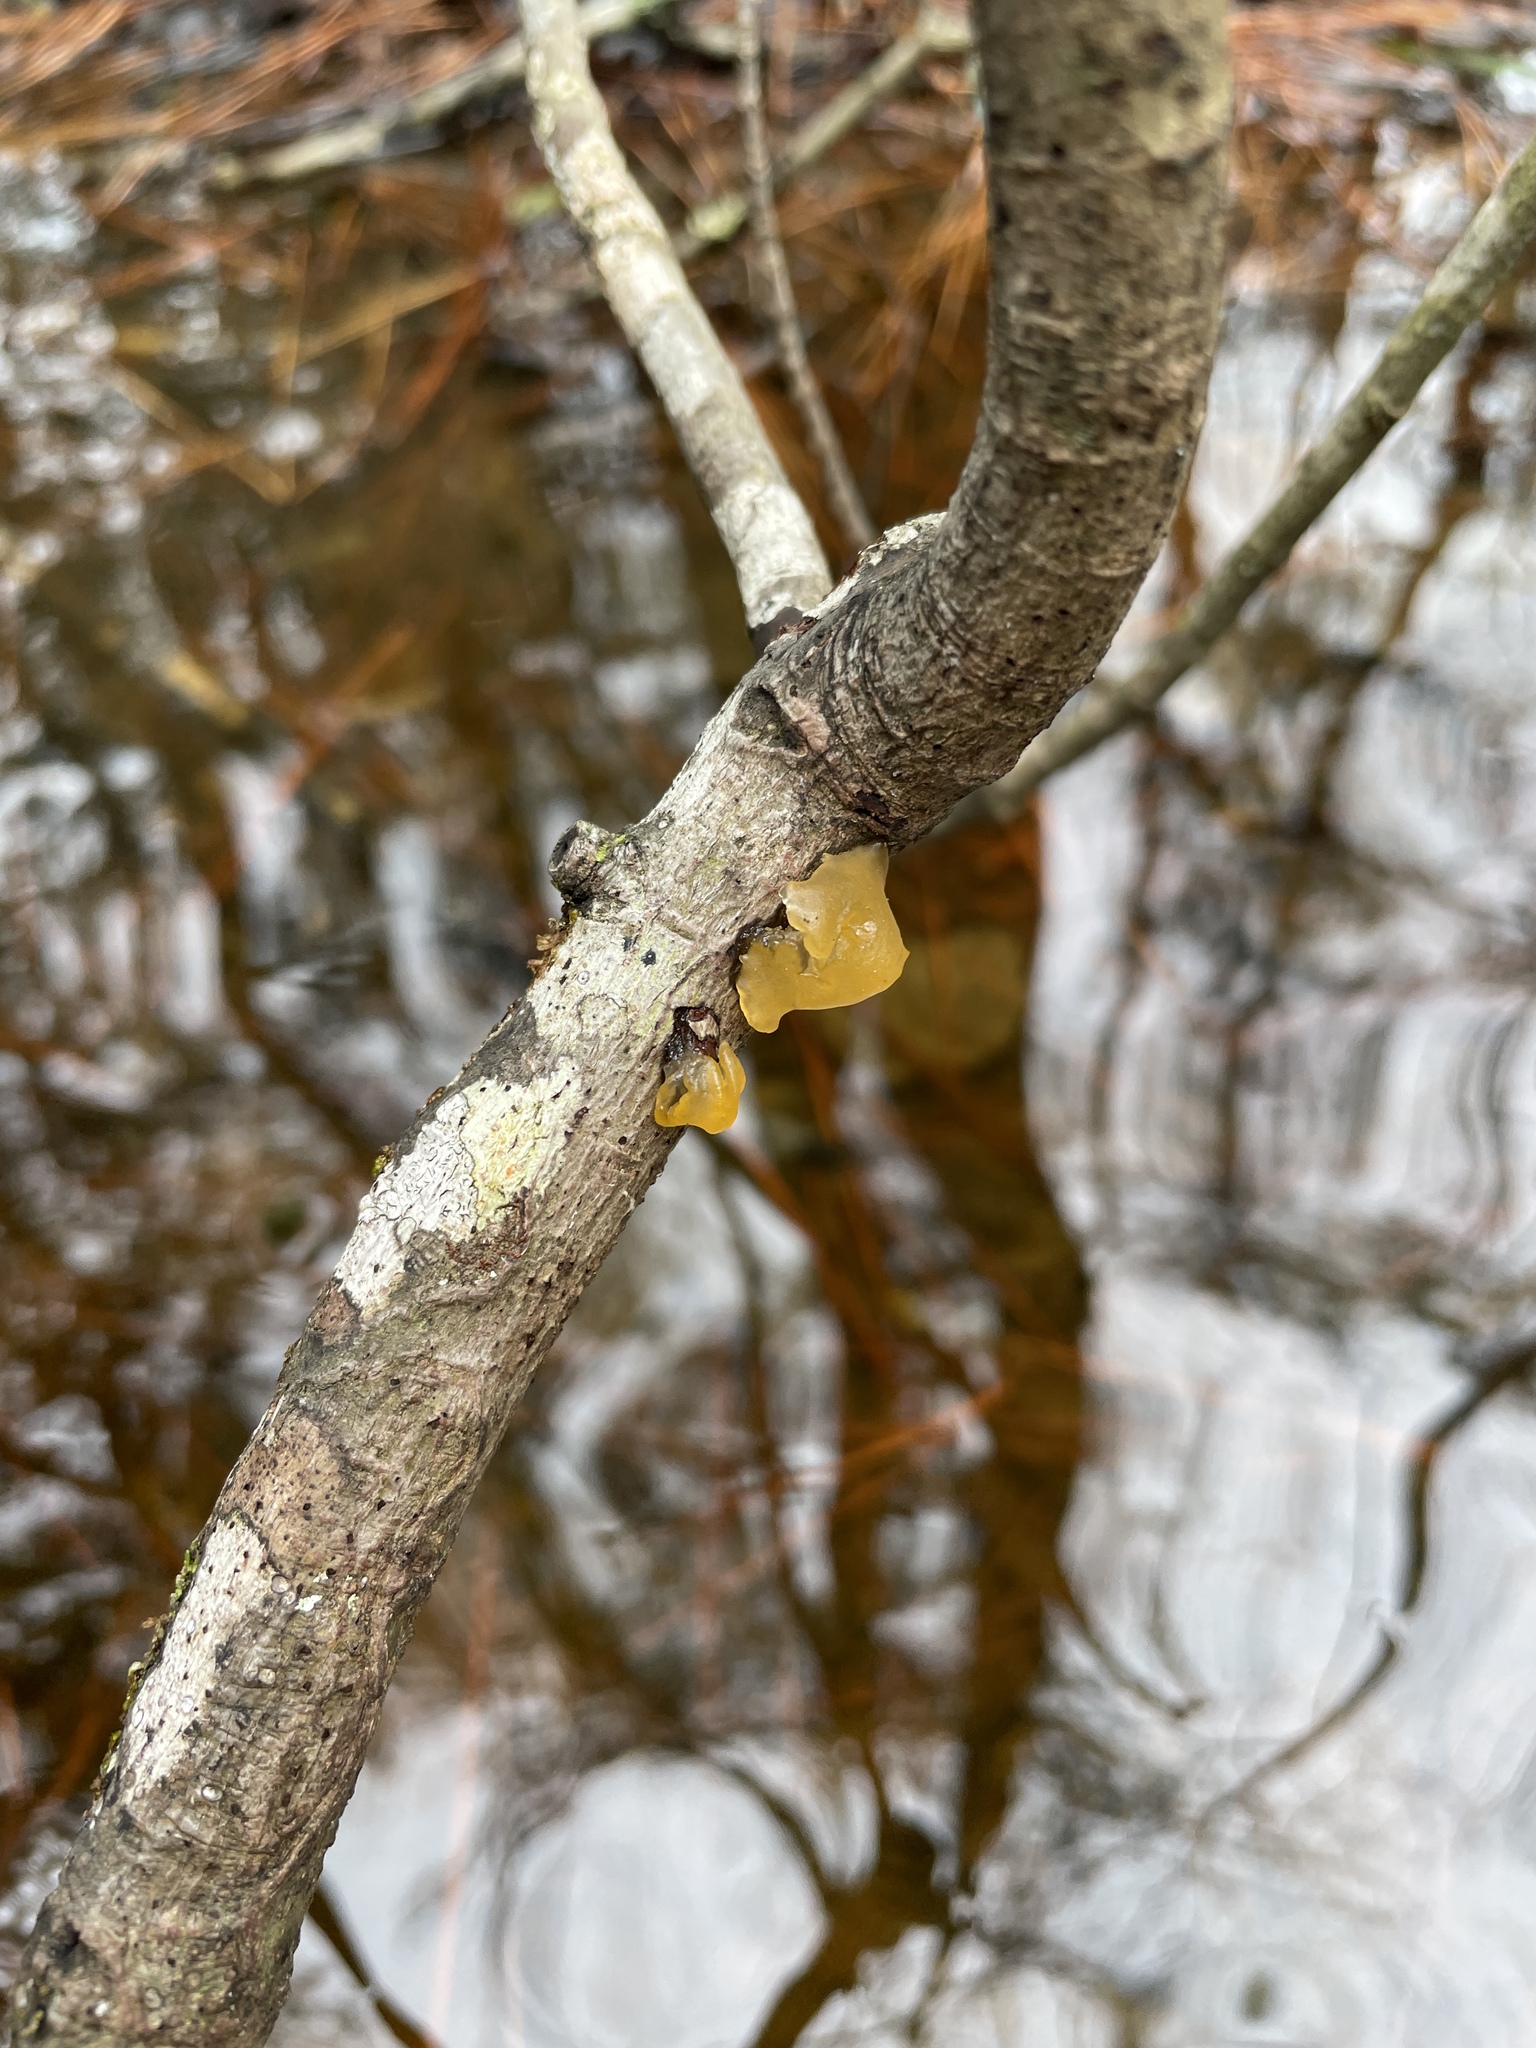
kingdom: Fungi
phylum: Basidiomycota
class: Tremellomycetes
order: Tremellales
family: Tremellaceae
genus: Tremella
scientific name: Tremella mesenterica
